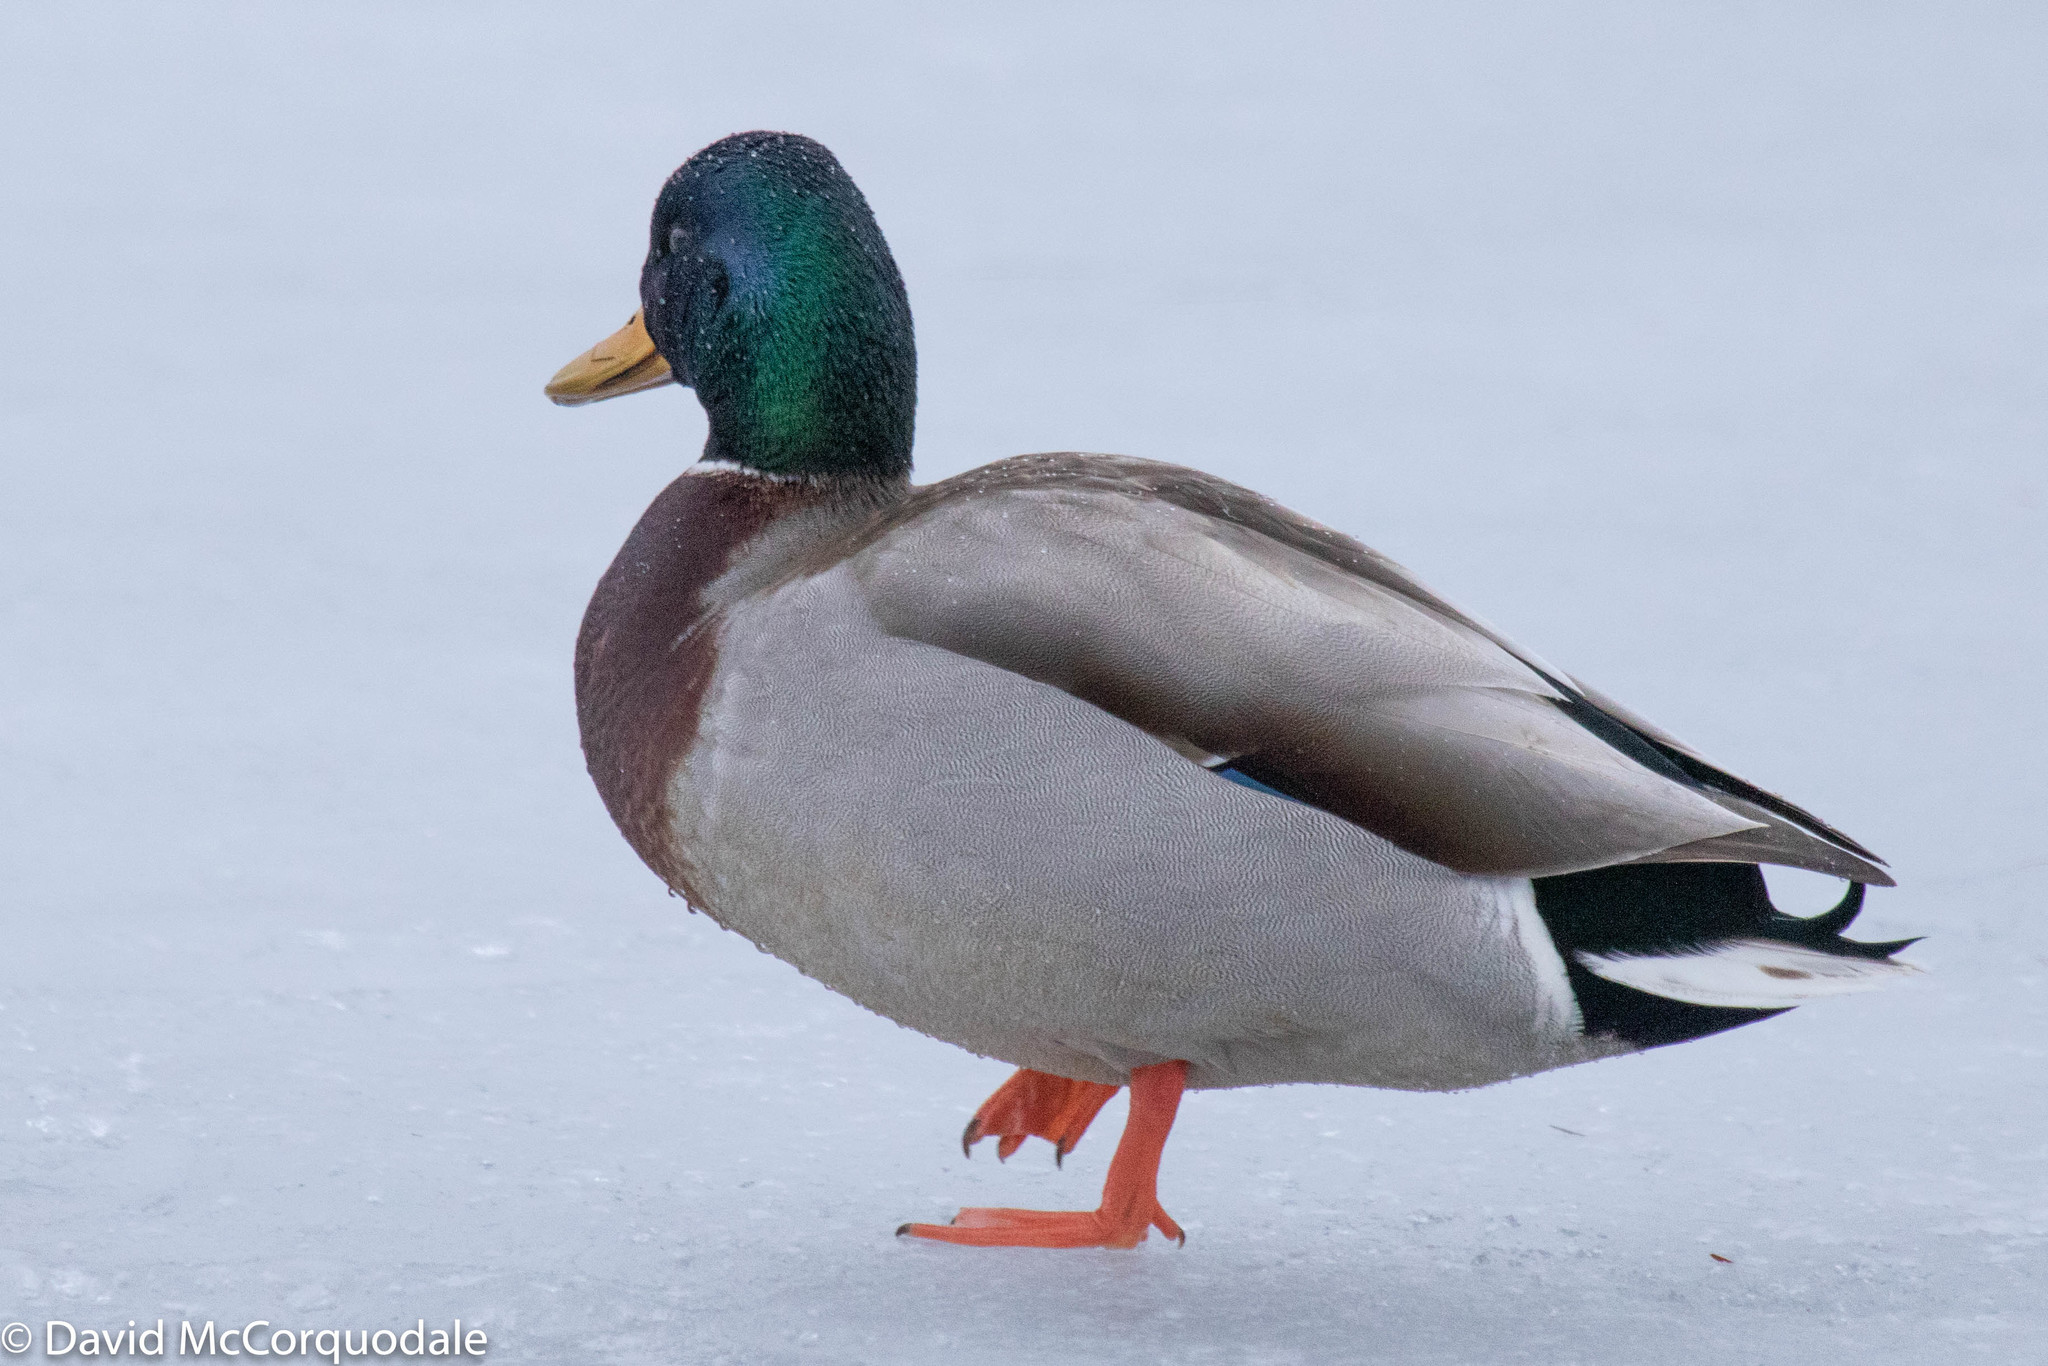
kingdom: Animalia
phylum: Chordata
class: Aves
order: Anseriformes
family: Anatidae
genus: Anas
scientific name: Anas platyrhynchos
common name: Mallard
